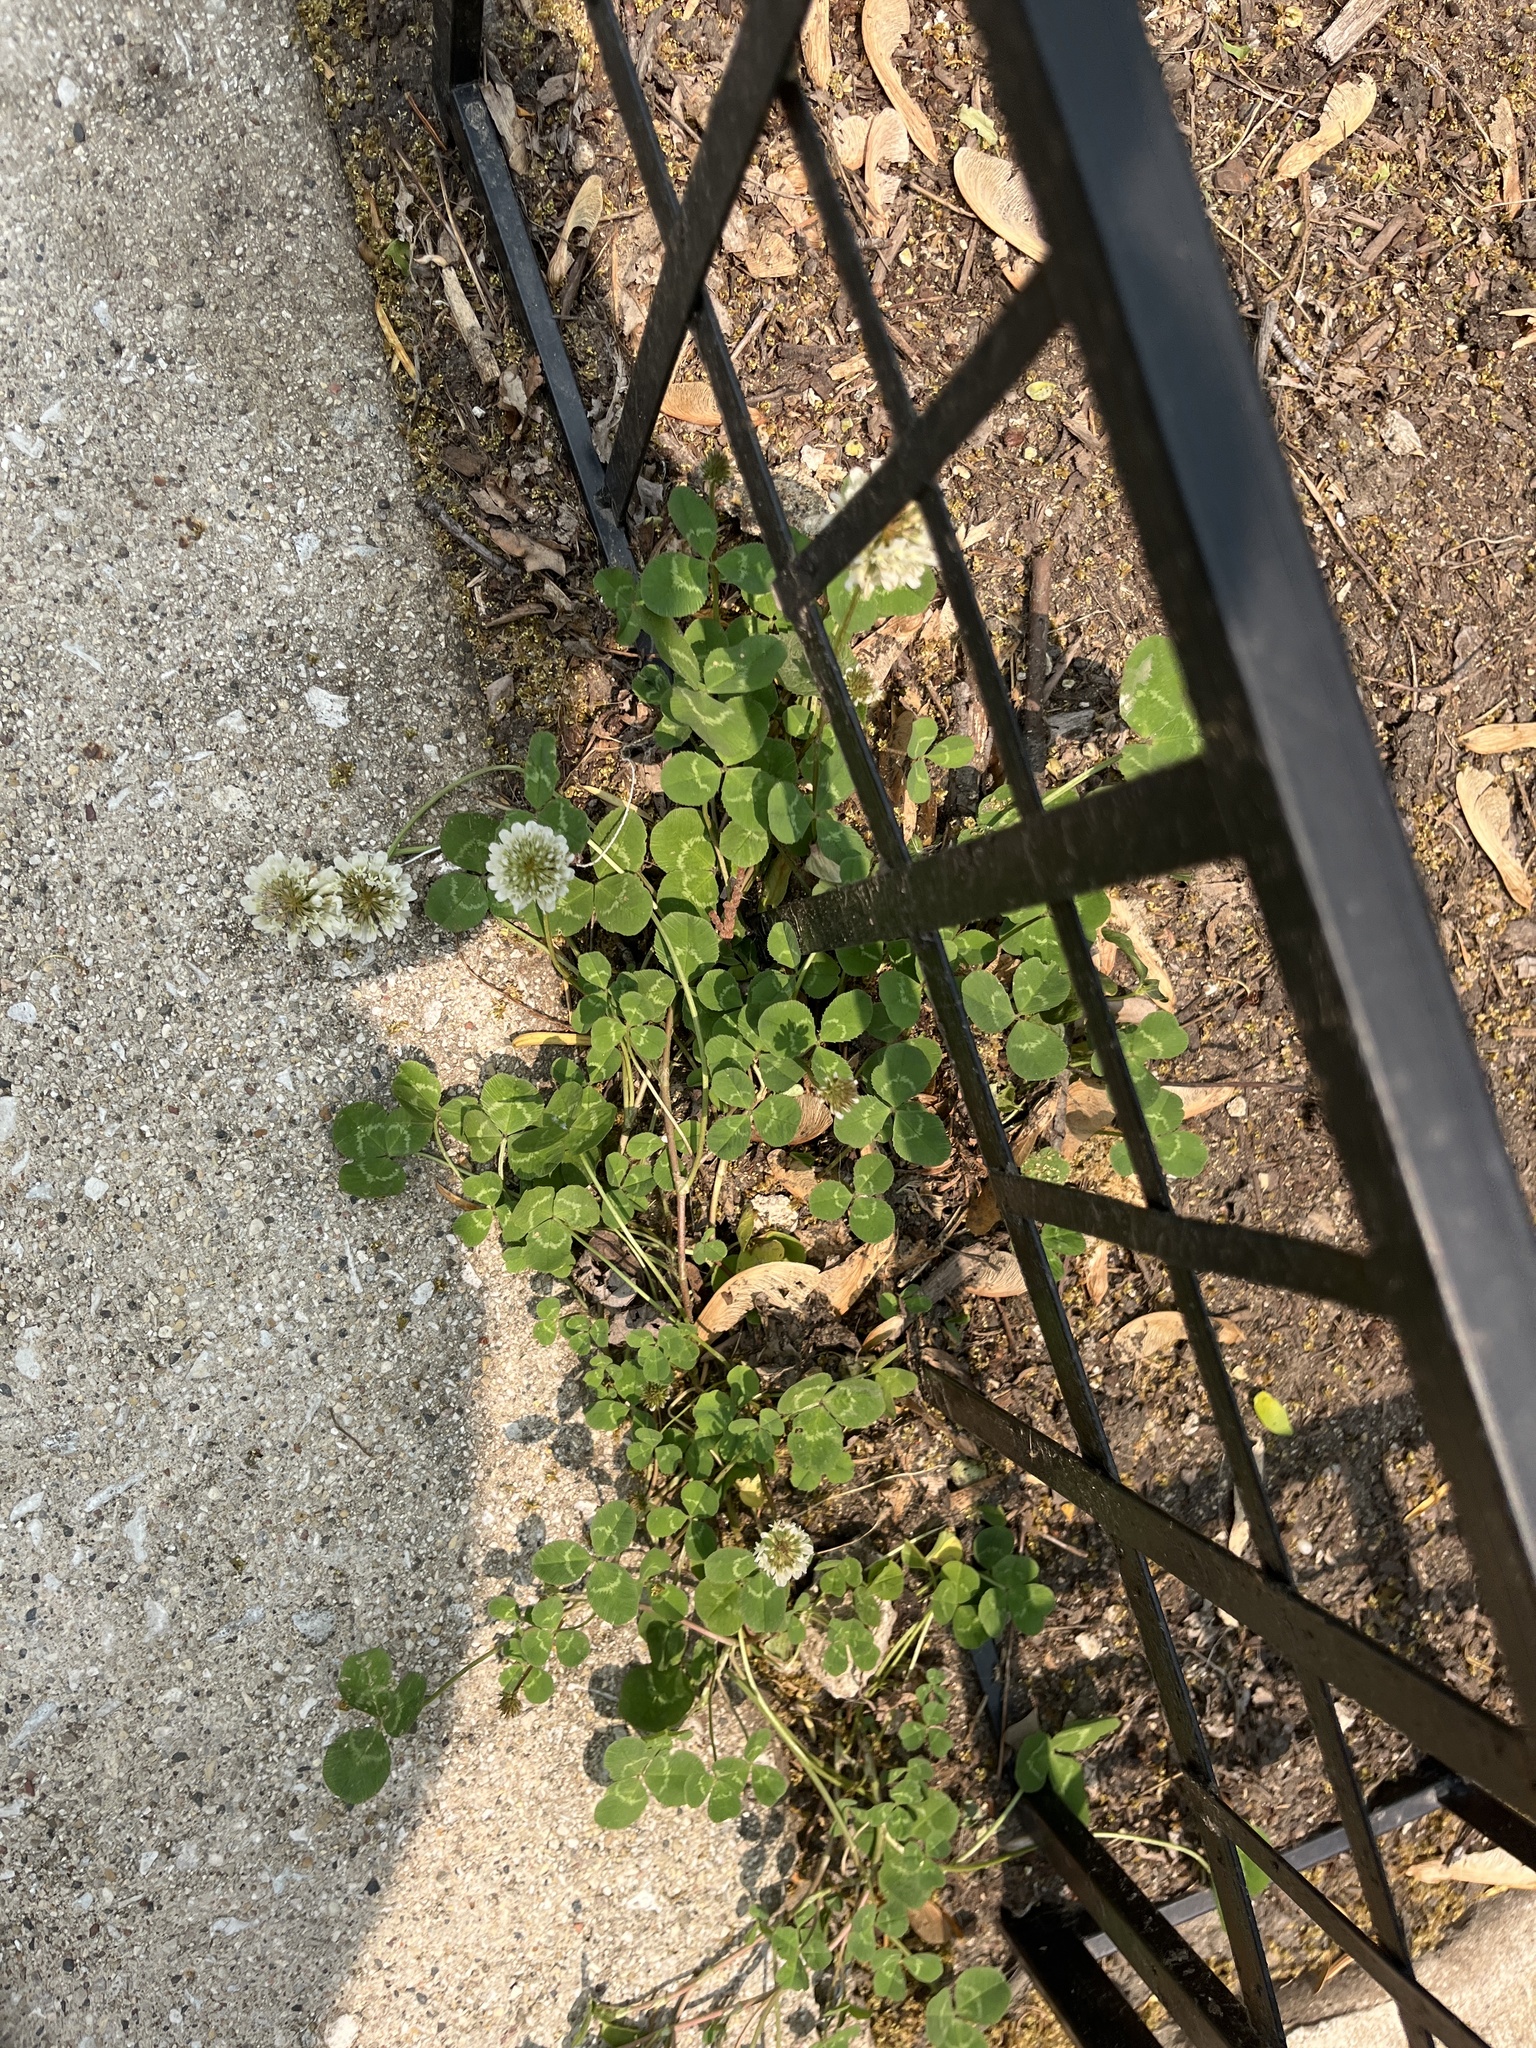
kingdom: Plantae
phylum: Tracheophyta
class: Magnoliopsida
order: Fabales
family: Fabaceae
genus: Trifolium
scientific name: Trifolium repens
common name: White clover
